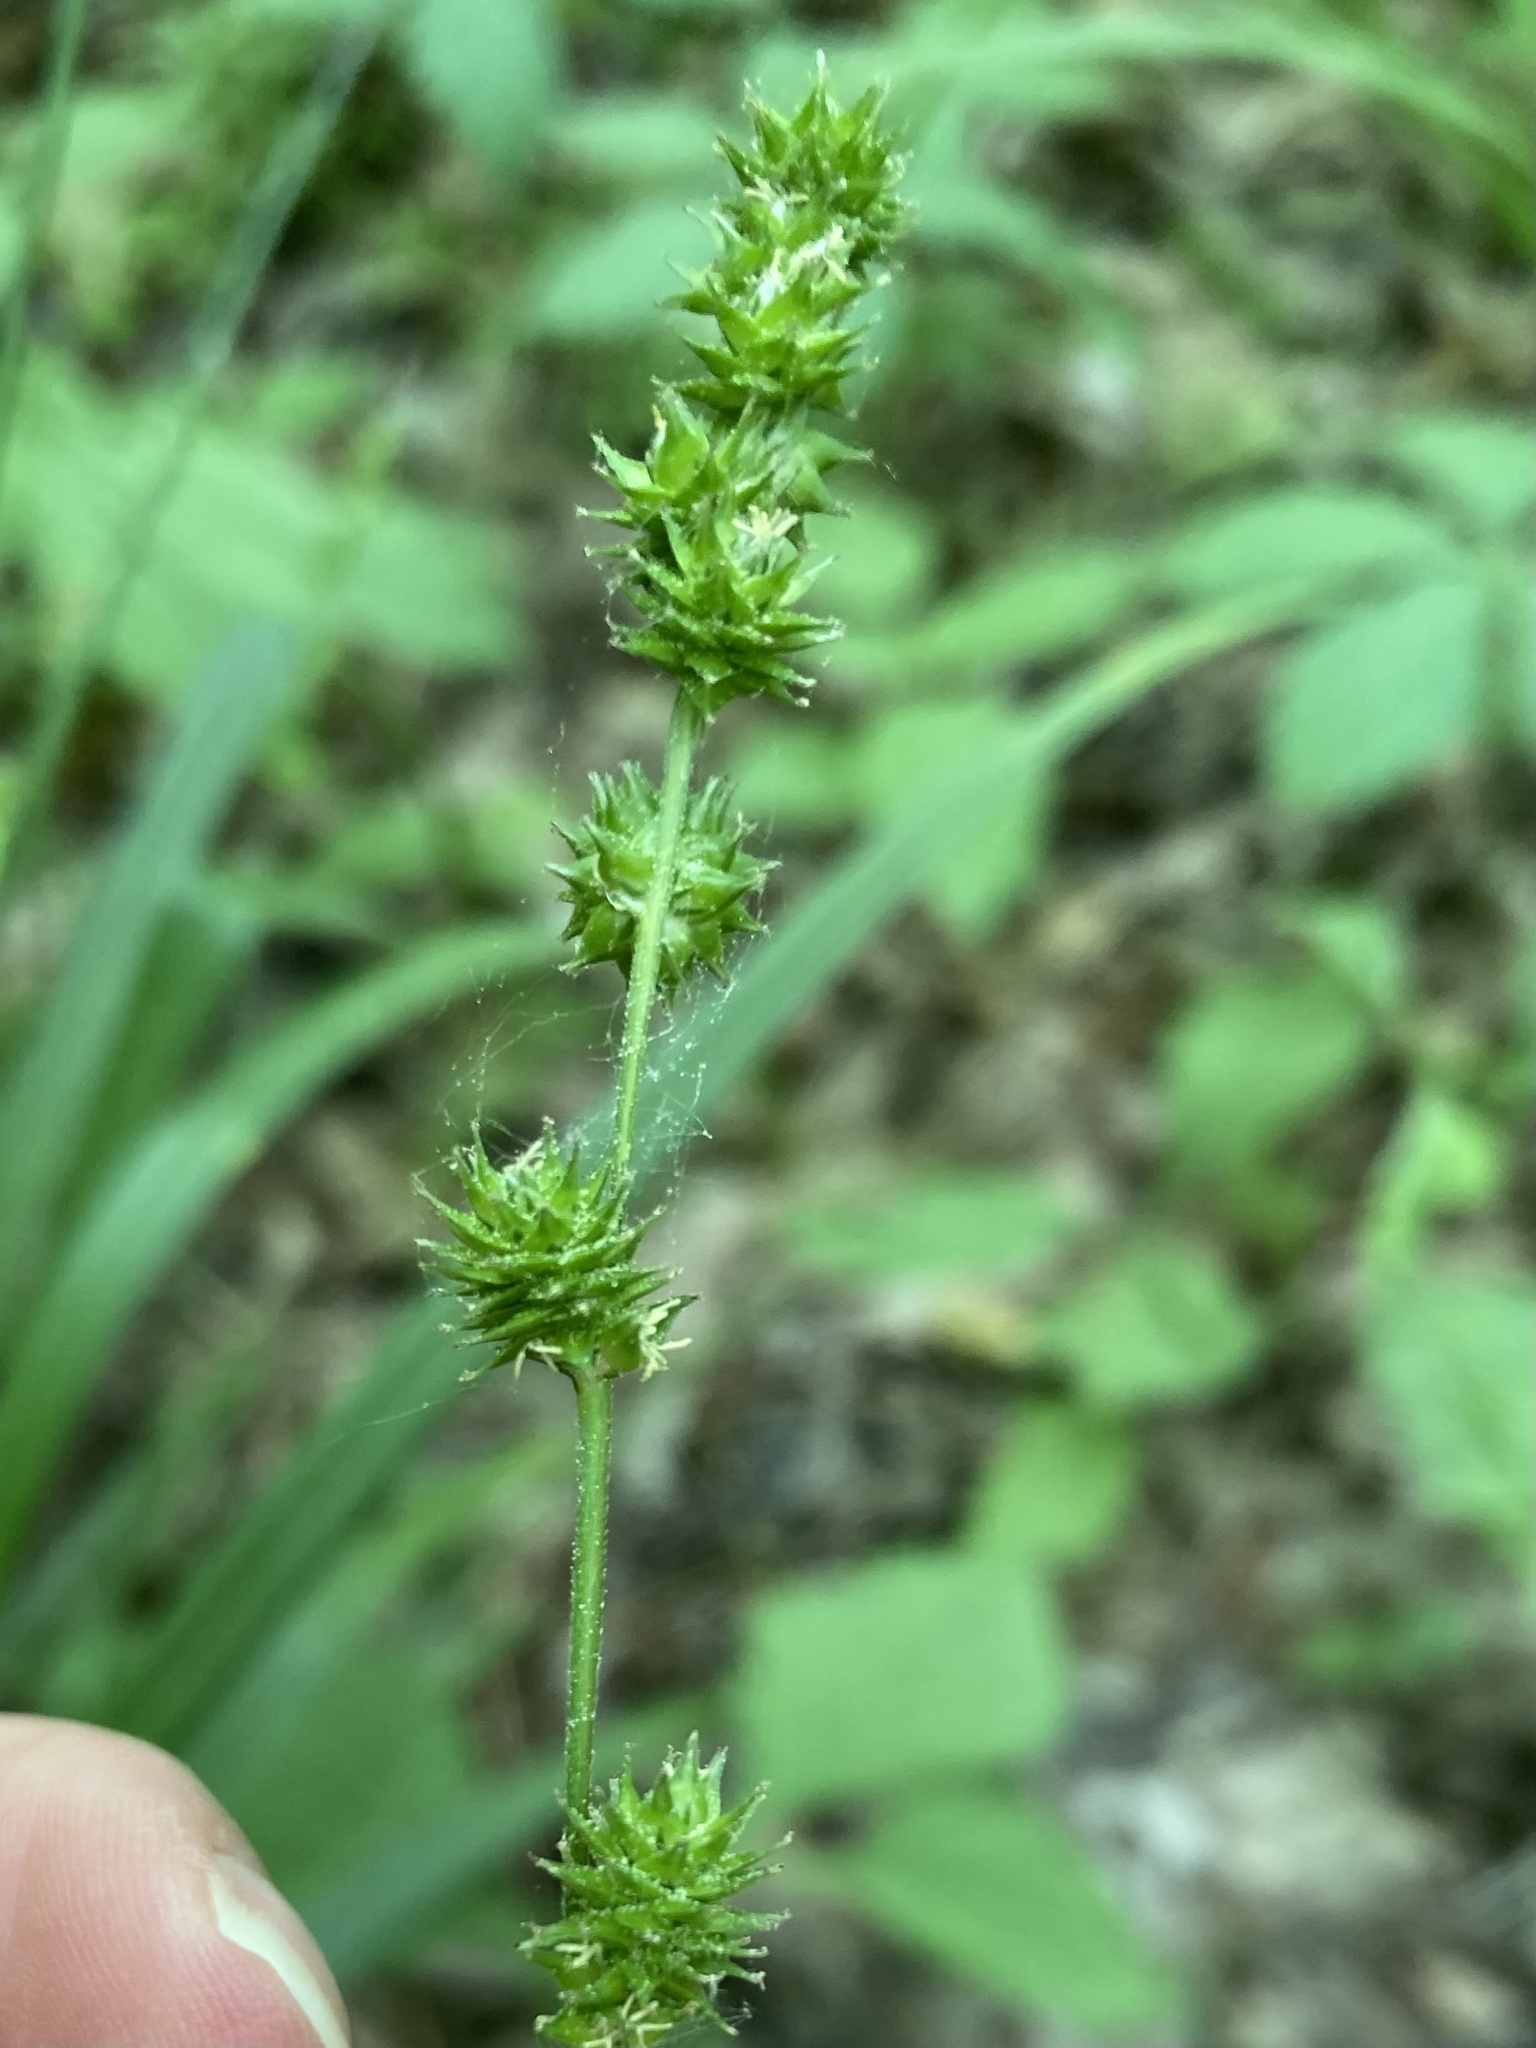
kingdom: Plantae
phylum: Tracheophyta
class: Liliopsida
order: Poales
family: Cyperaceae
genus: Carex
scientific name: Carex sparganioides
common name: Burreed sedge
